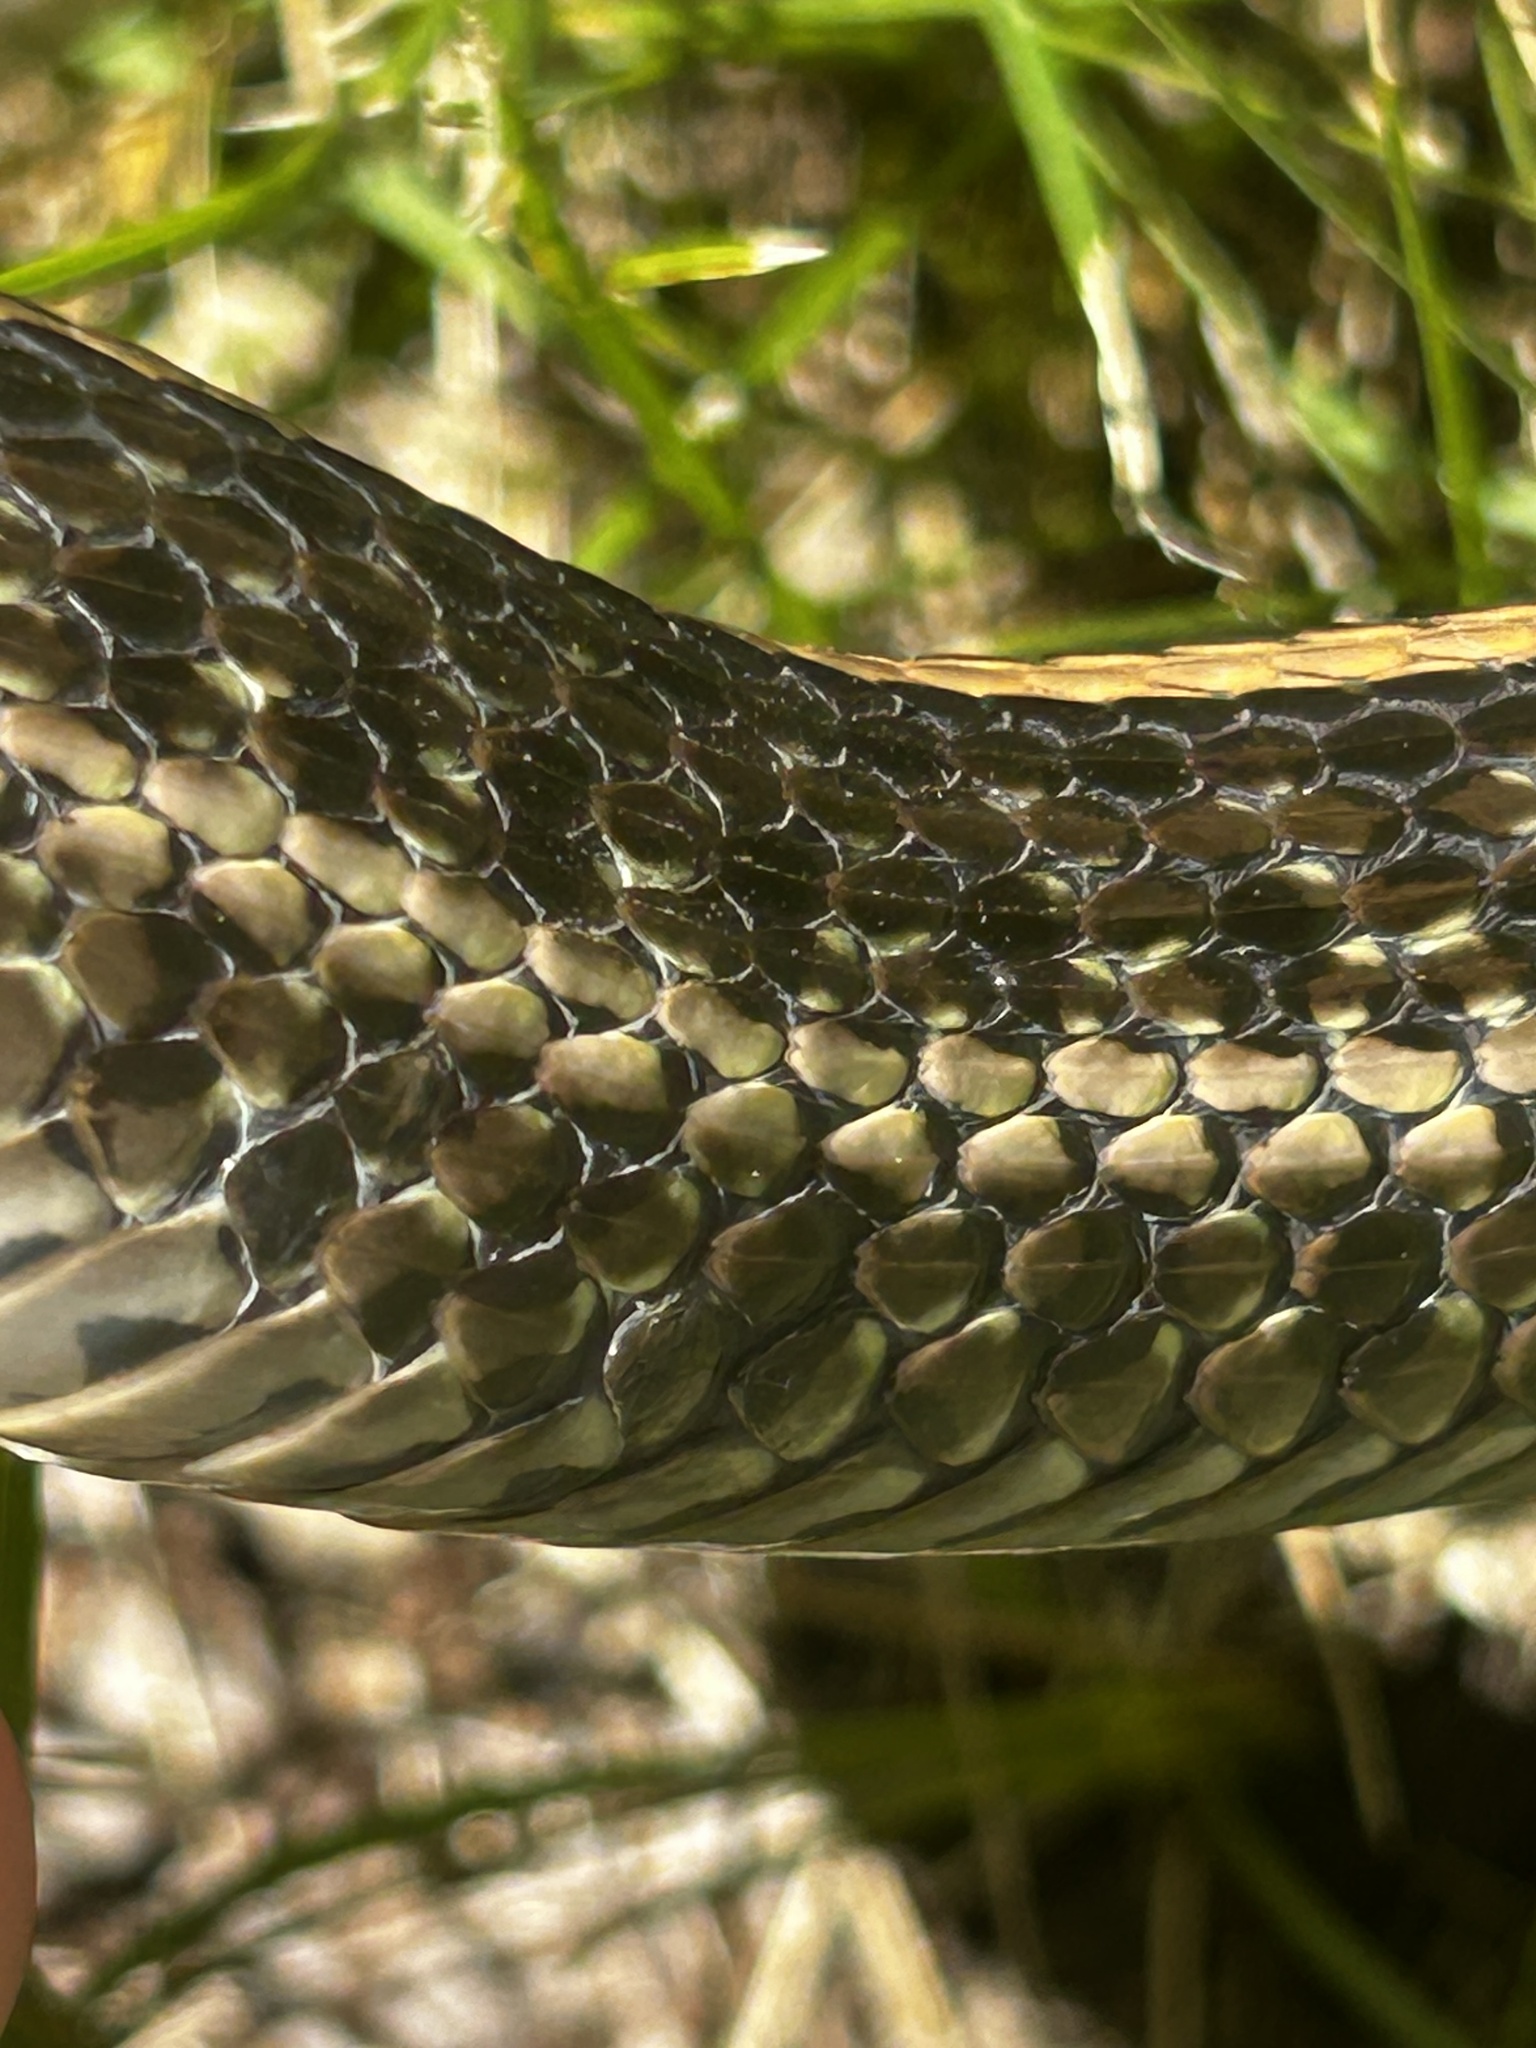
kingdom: Animalia
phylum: Chordata
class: Squamata
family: Colubridae
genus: Thamnophis
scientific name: Thamnophis radix
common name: Plains garter snake
